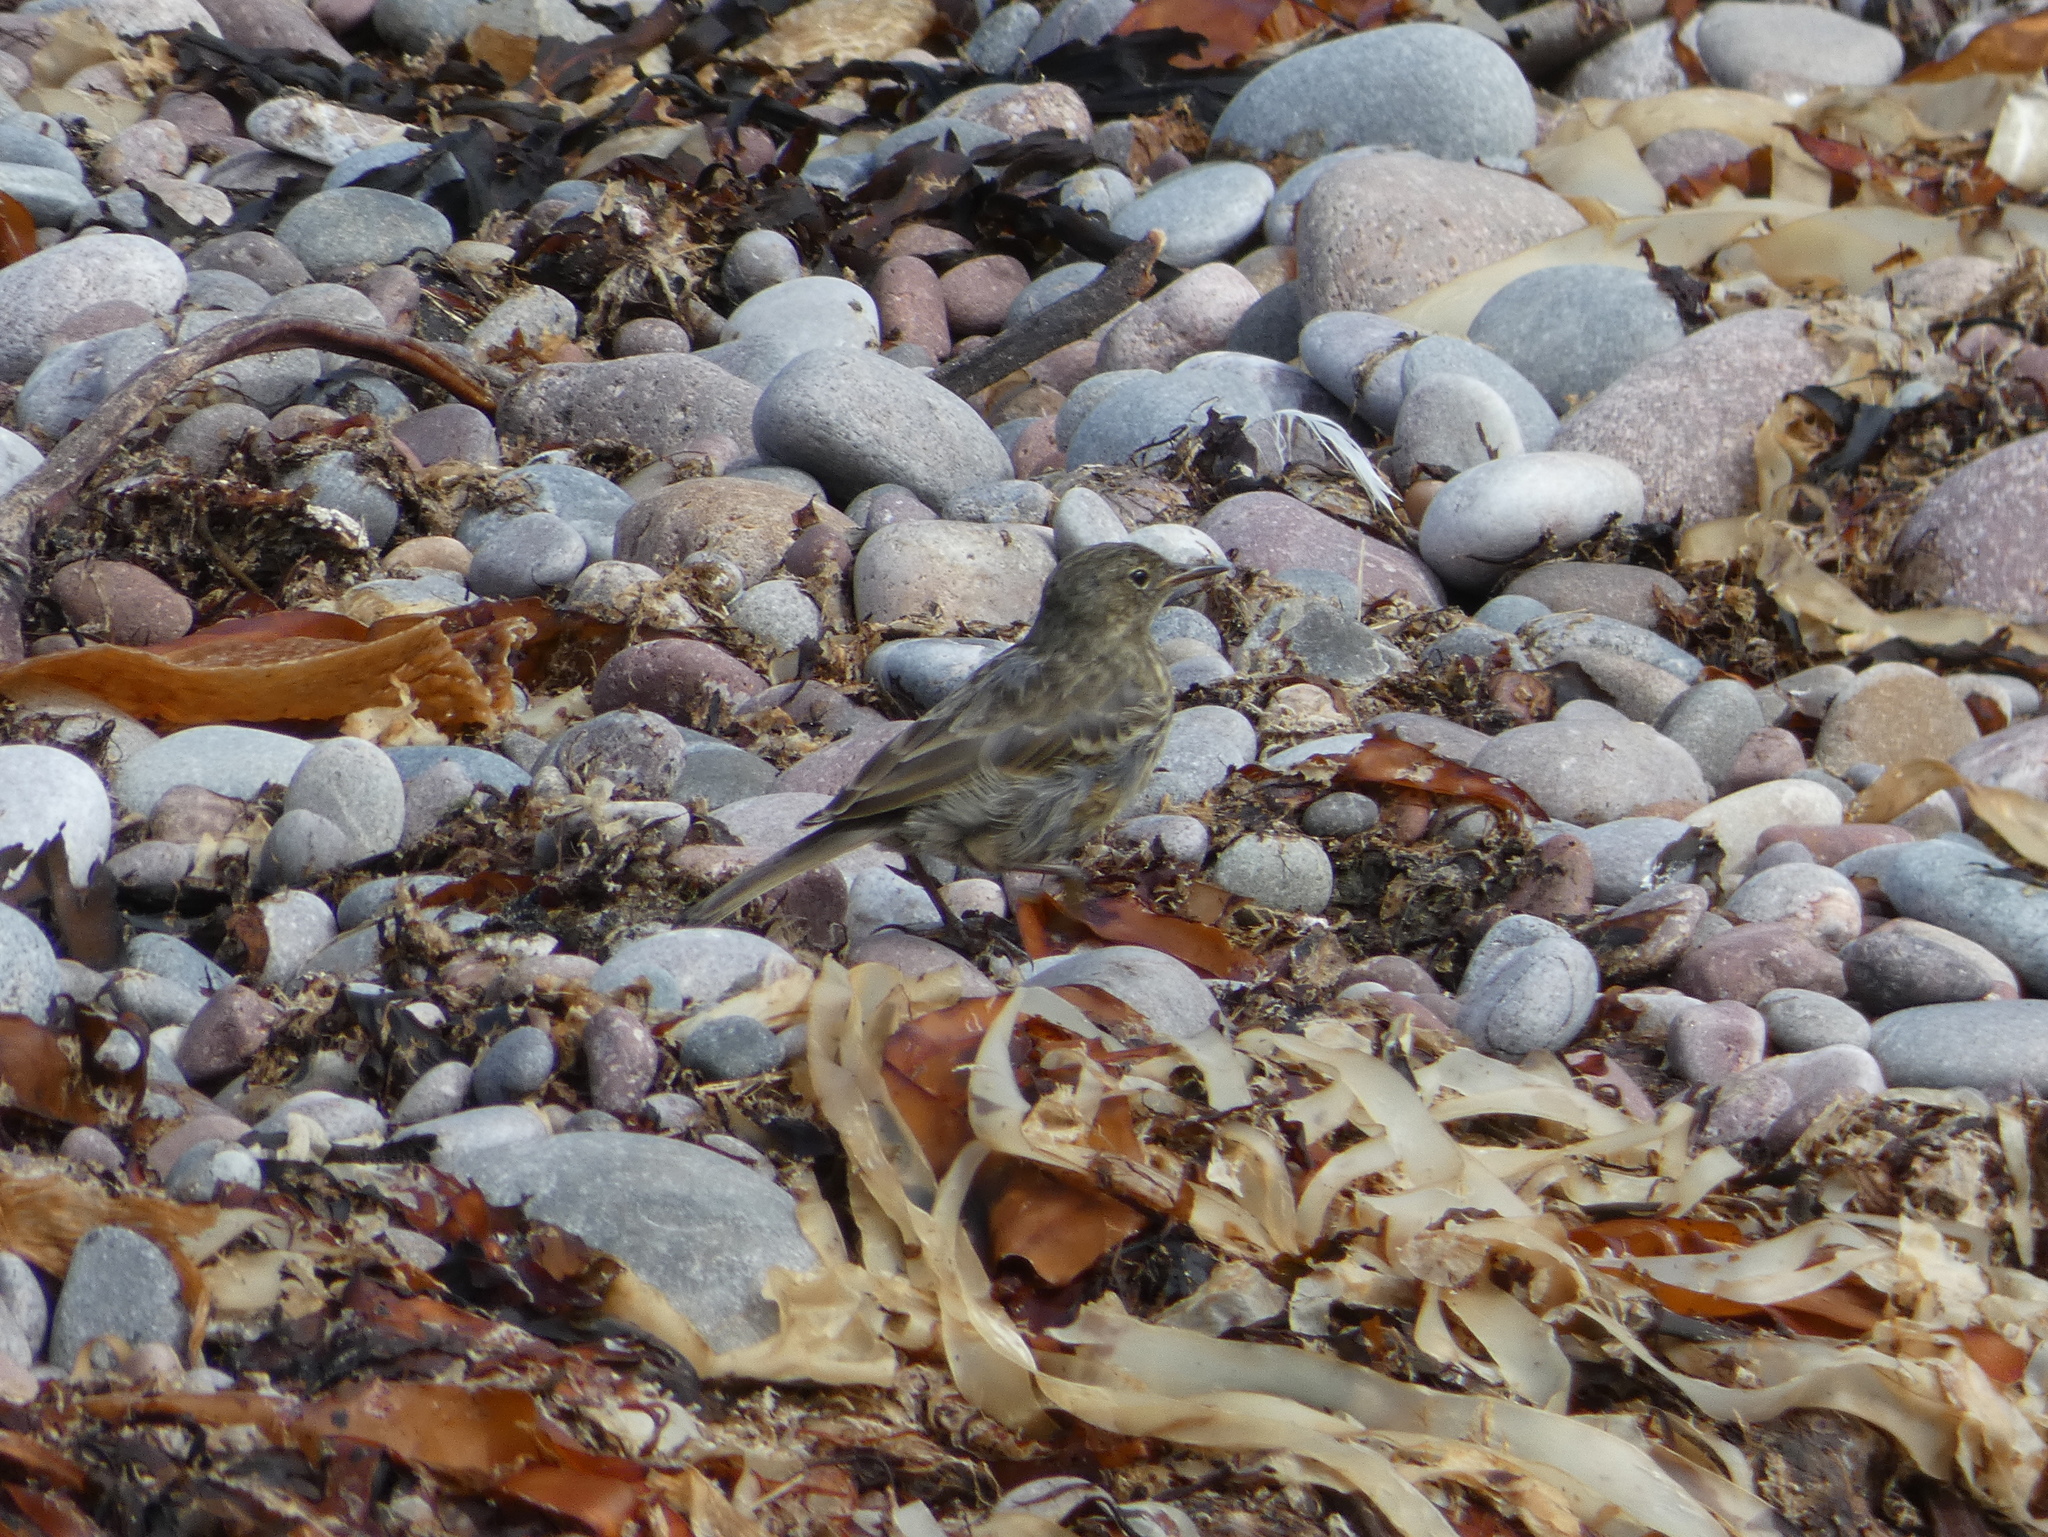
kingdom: Animalia
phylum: Chordata
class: Aves
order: Passeriformes
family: Motacillidae
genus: Anthus
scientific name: Anthus petrosus
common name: Eurasian rock pipit
